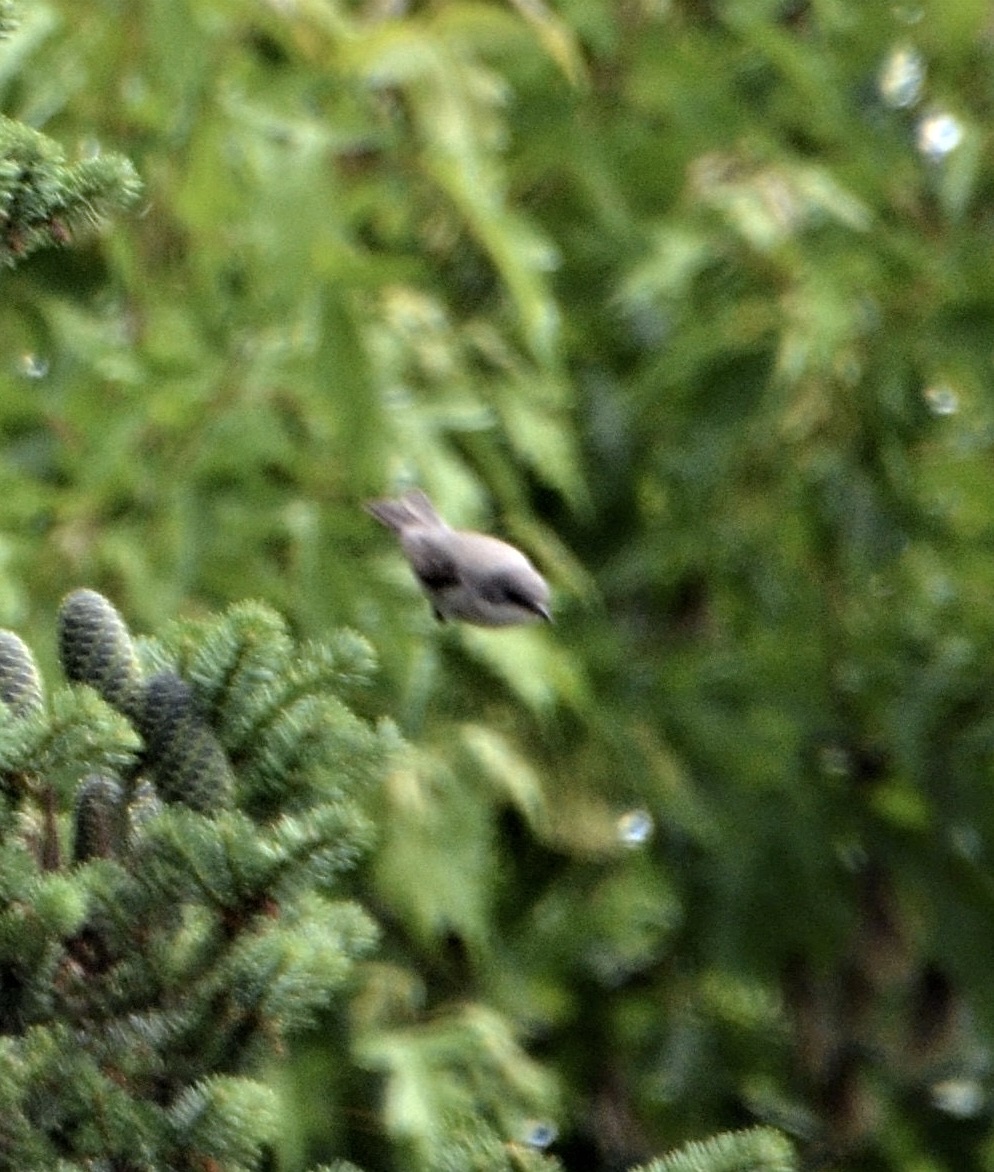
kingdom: Animalia
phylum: Chordata
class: Aves
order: Passeriformes
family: Sylviidae
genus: Sylvia
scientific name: Sylvia curruca
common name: Lesser whitethroat
